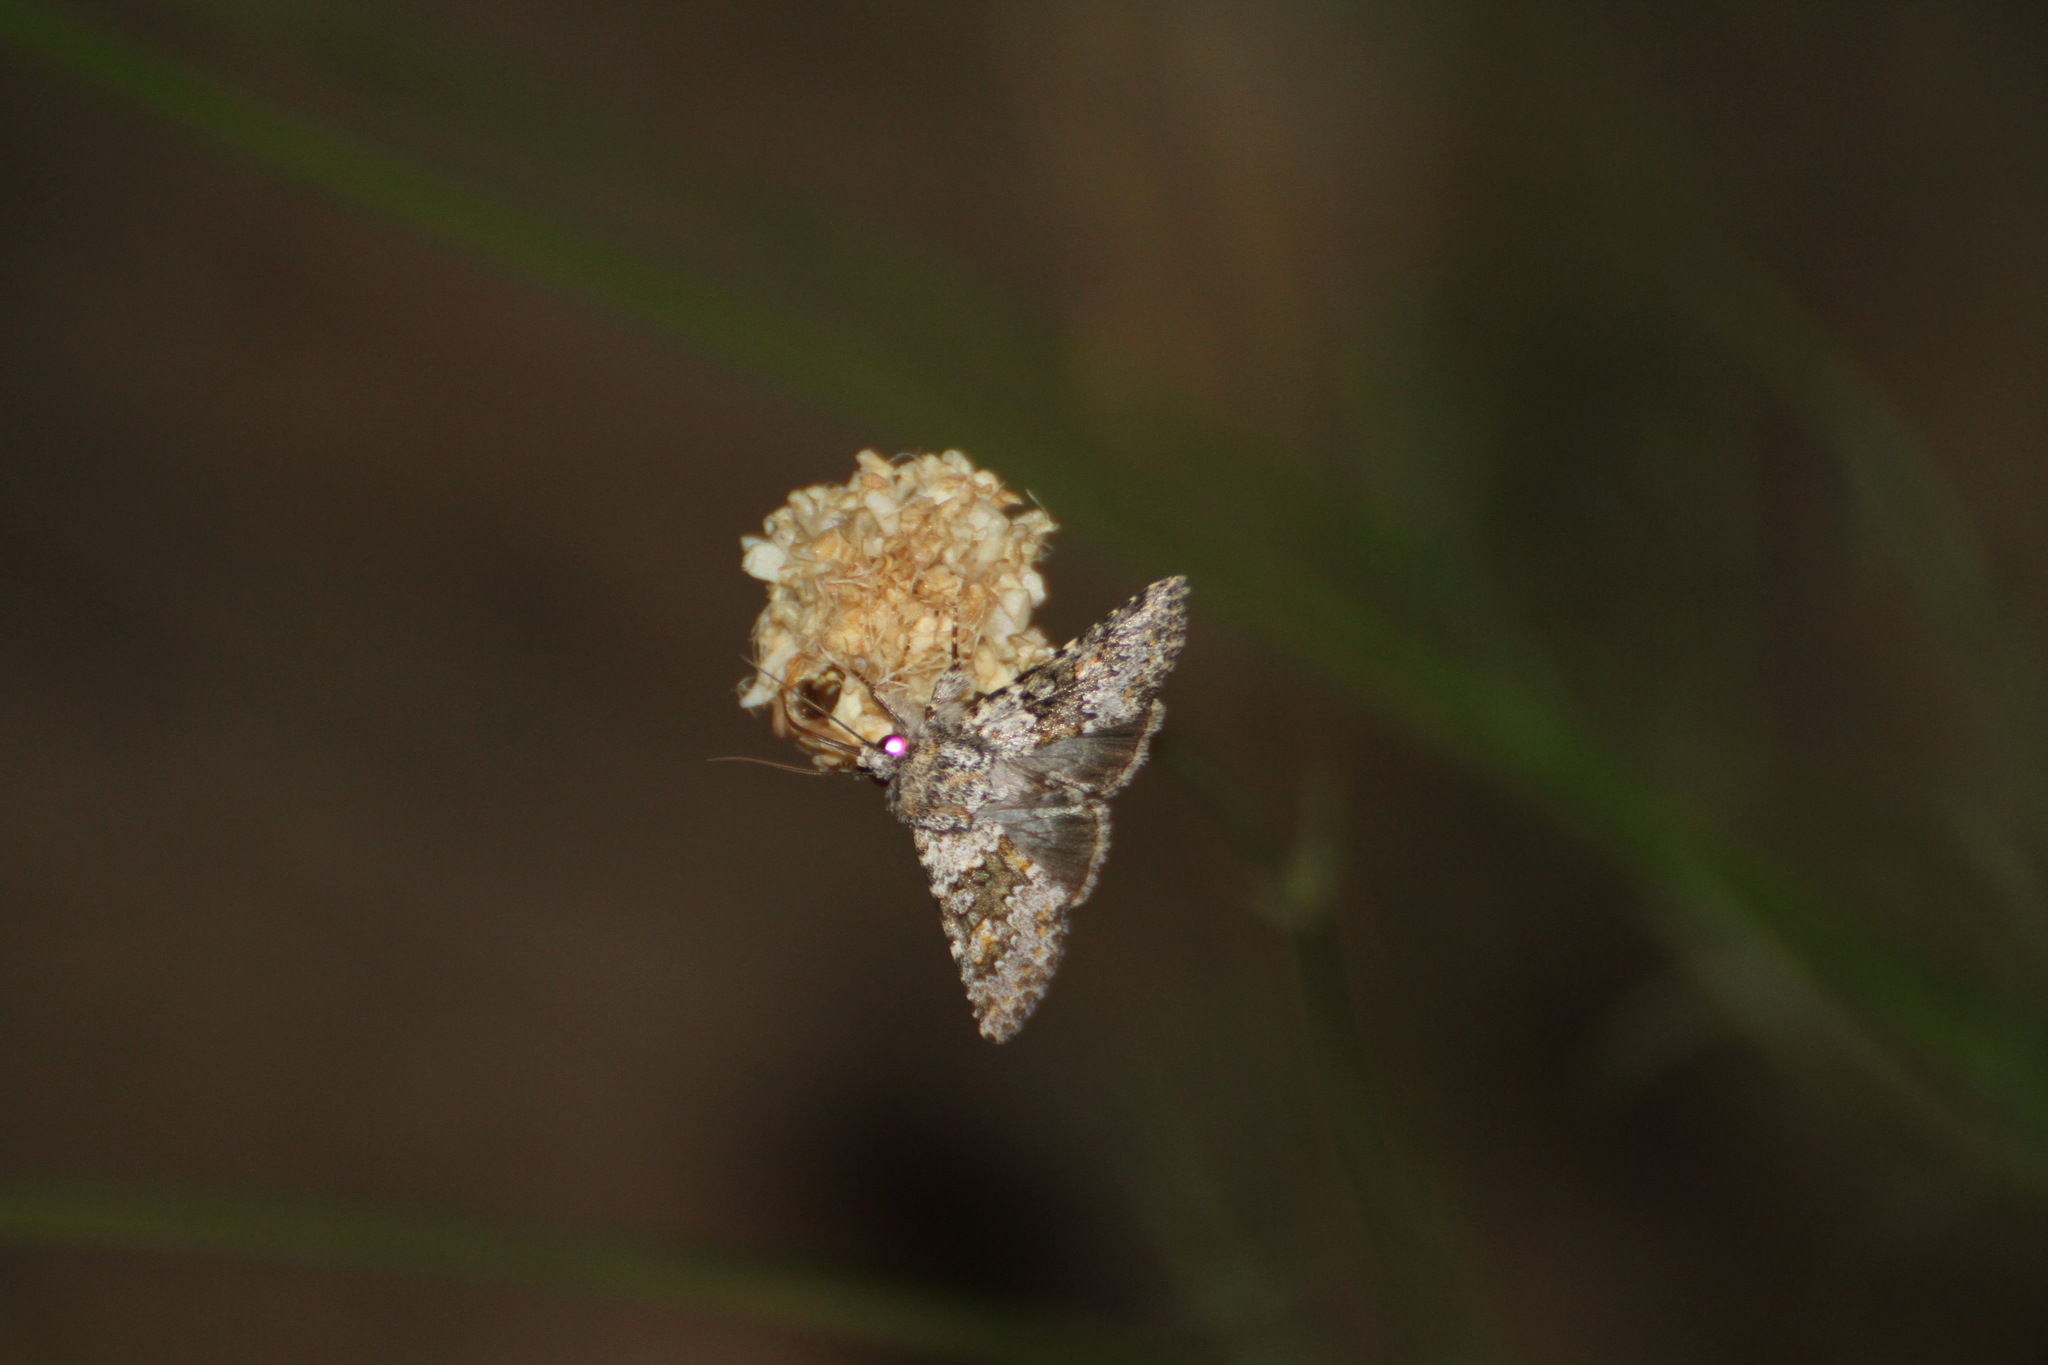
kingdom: Animalia
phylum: Arthropoda
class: Insecta
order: Lepidoptera
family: Noctuidae
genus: Hecatera
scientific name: Hecatera dysodea
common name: Small ranunculus
